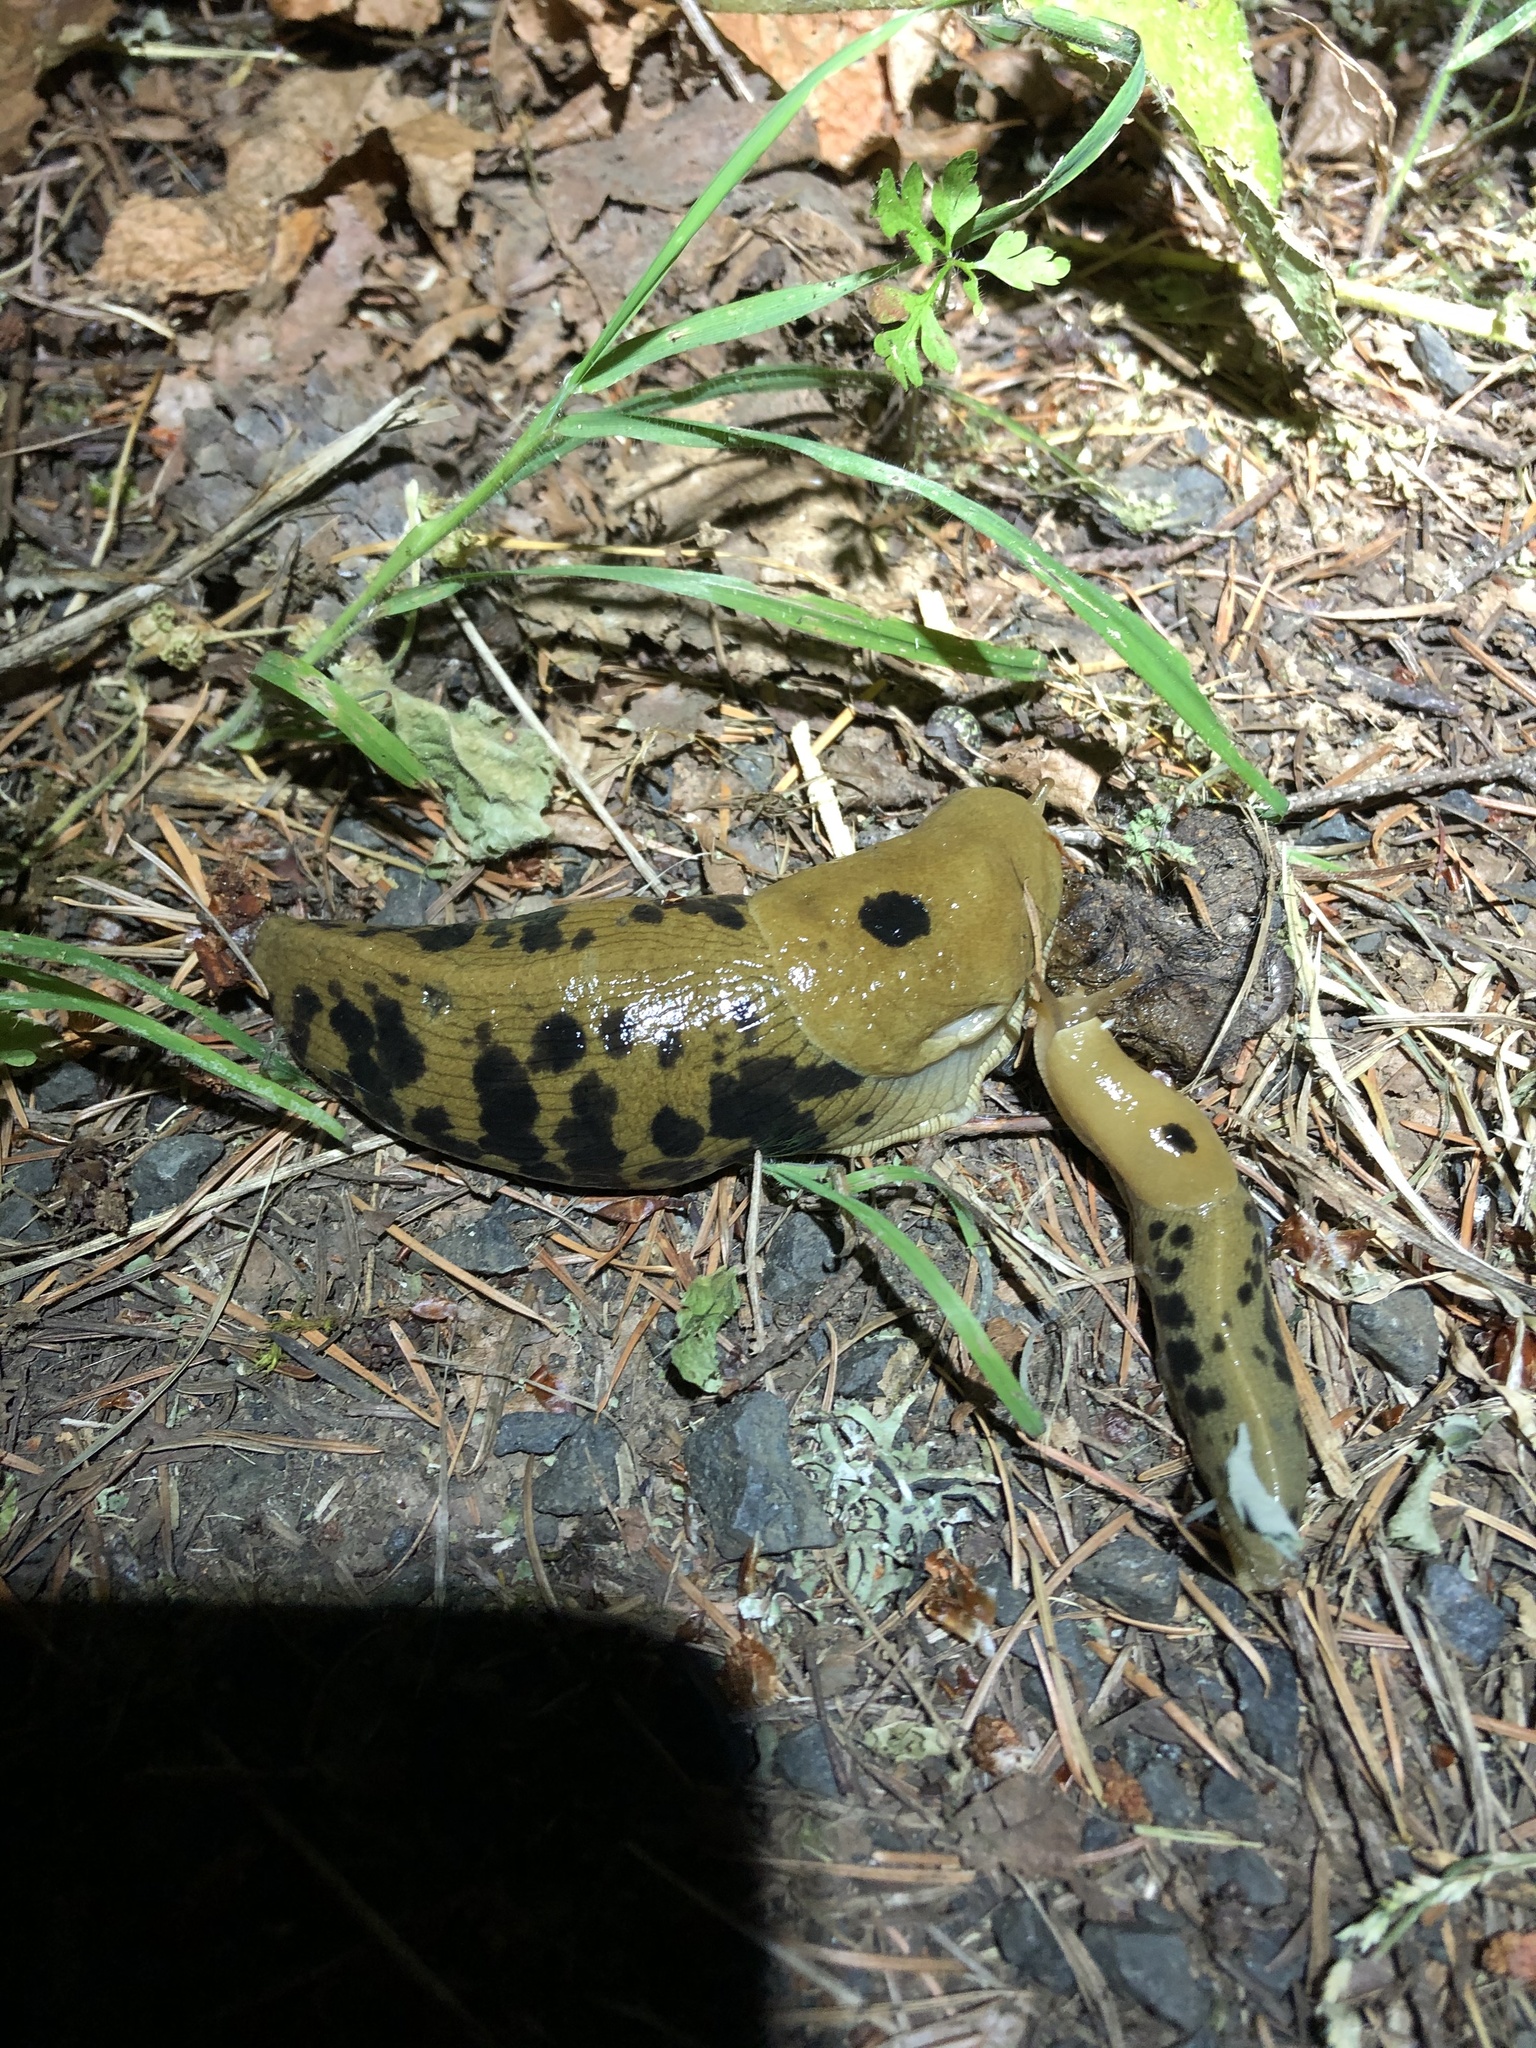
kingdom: Animalia
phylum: Mollusca
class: Gastropoda
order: Stylommatophora
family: Ariolimacidae
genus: Ariolimax
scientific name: Ariolimax columbianus
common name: Pacific banana slug
